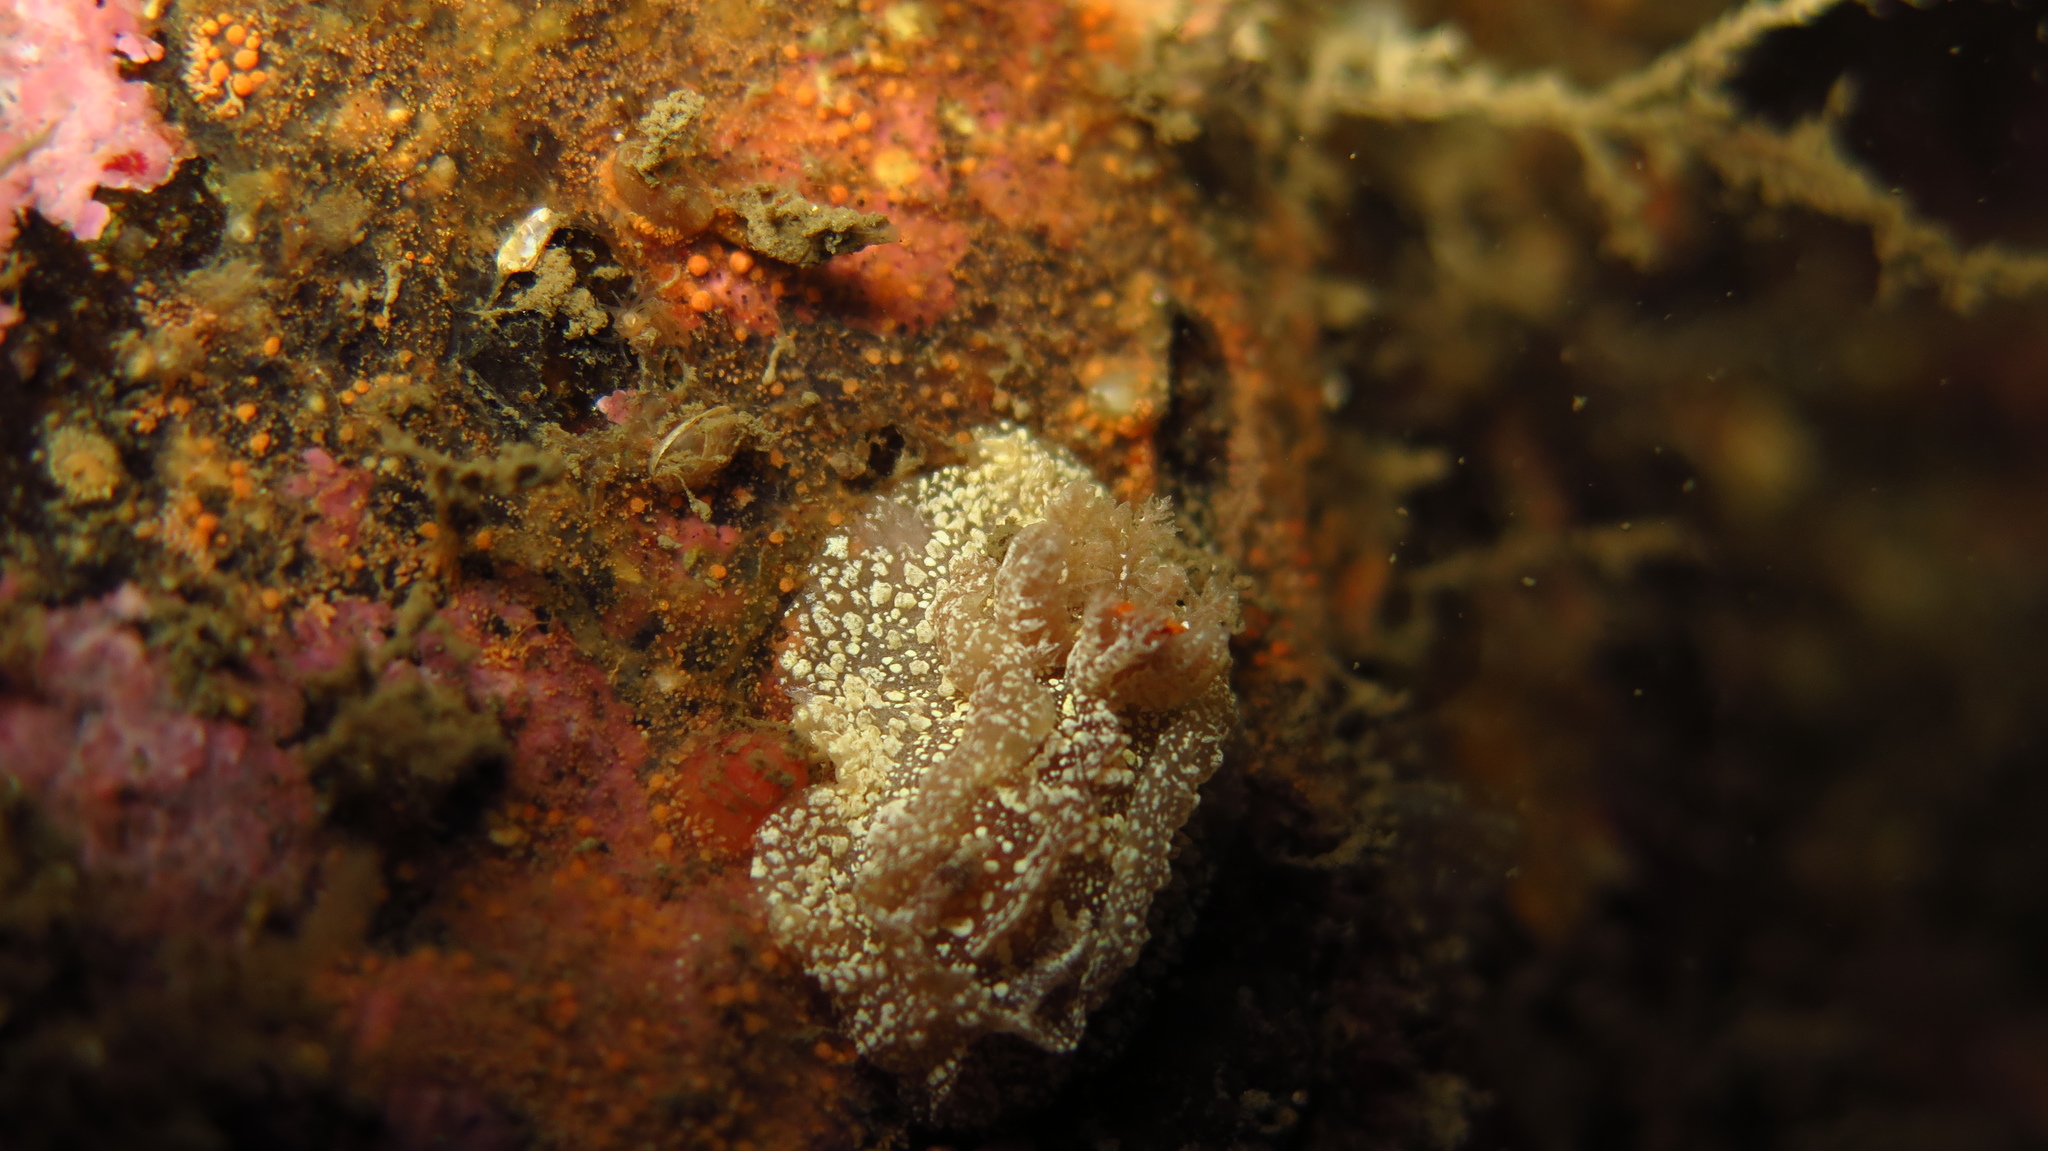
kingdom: Animalia
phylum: Mollusca
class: Gastropoda
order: Nudibranchia
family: Goniodorididae
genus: Pelagella
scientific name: Pelagella castanea
